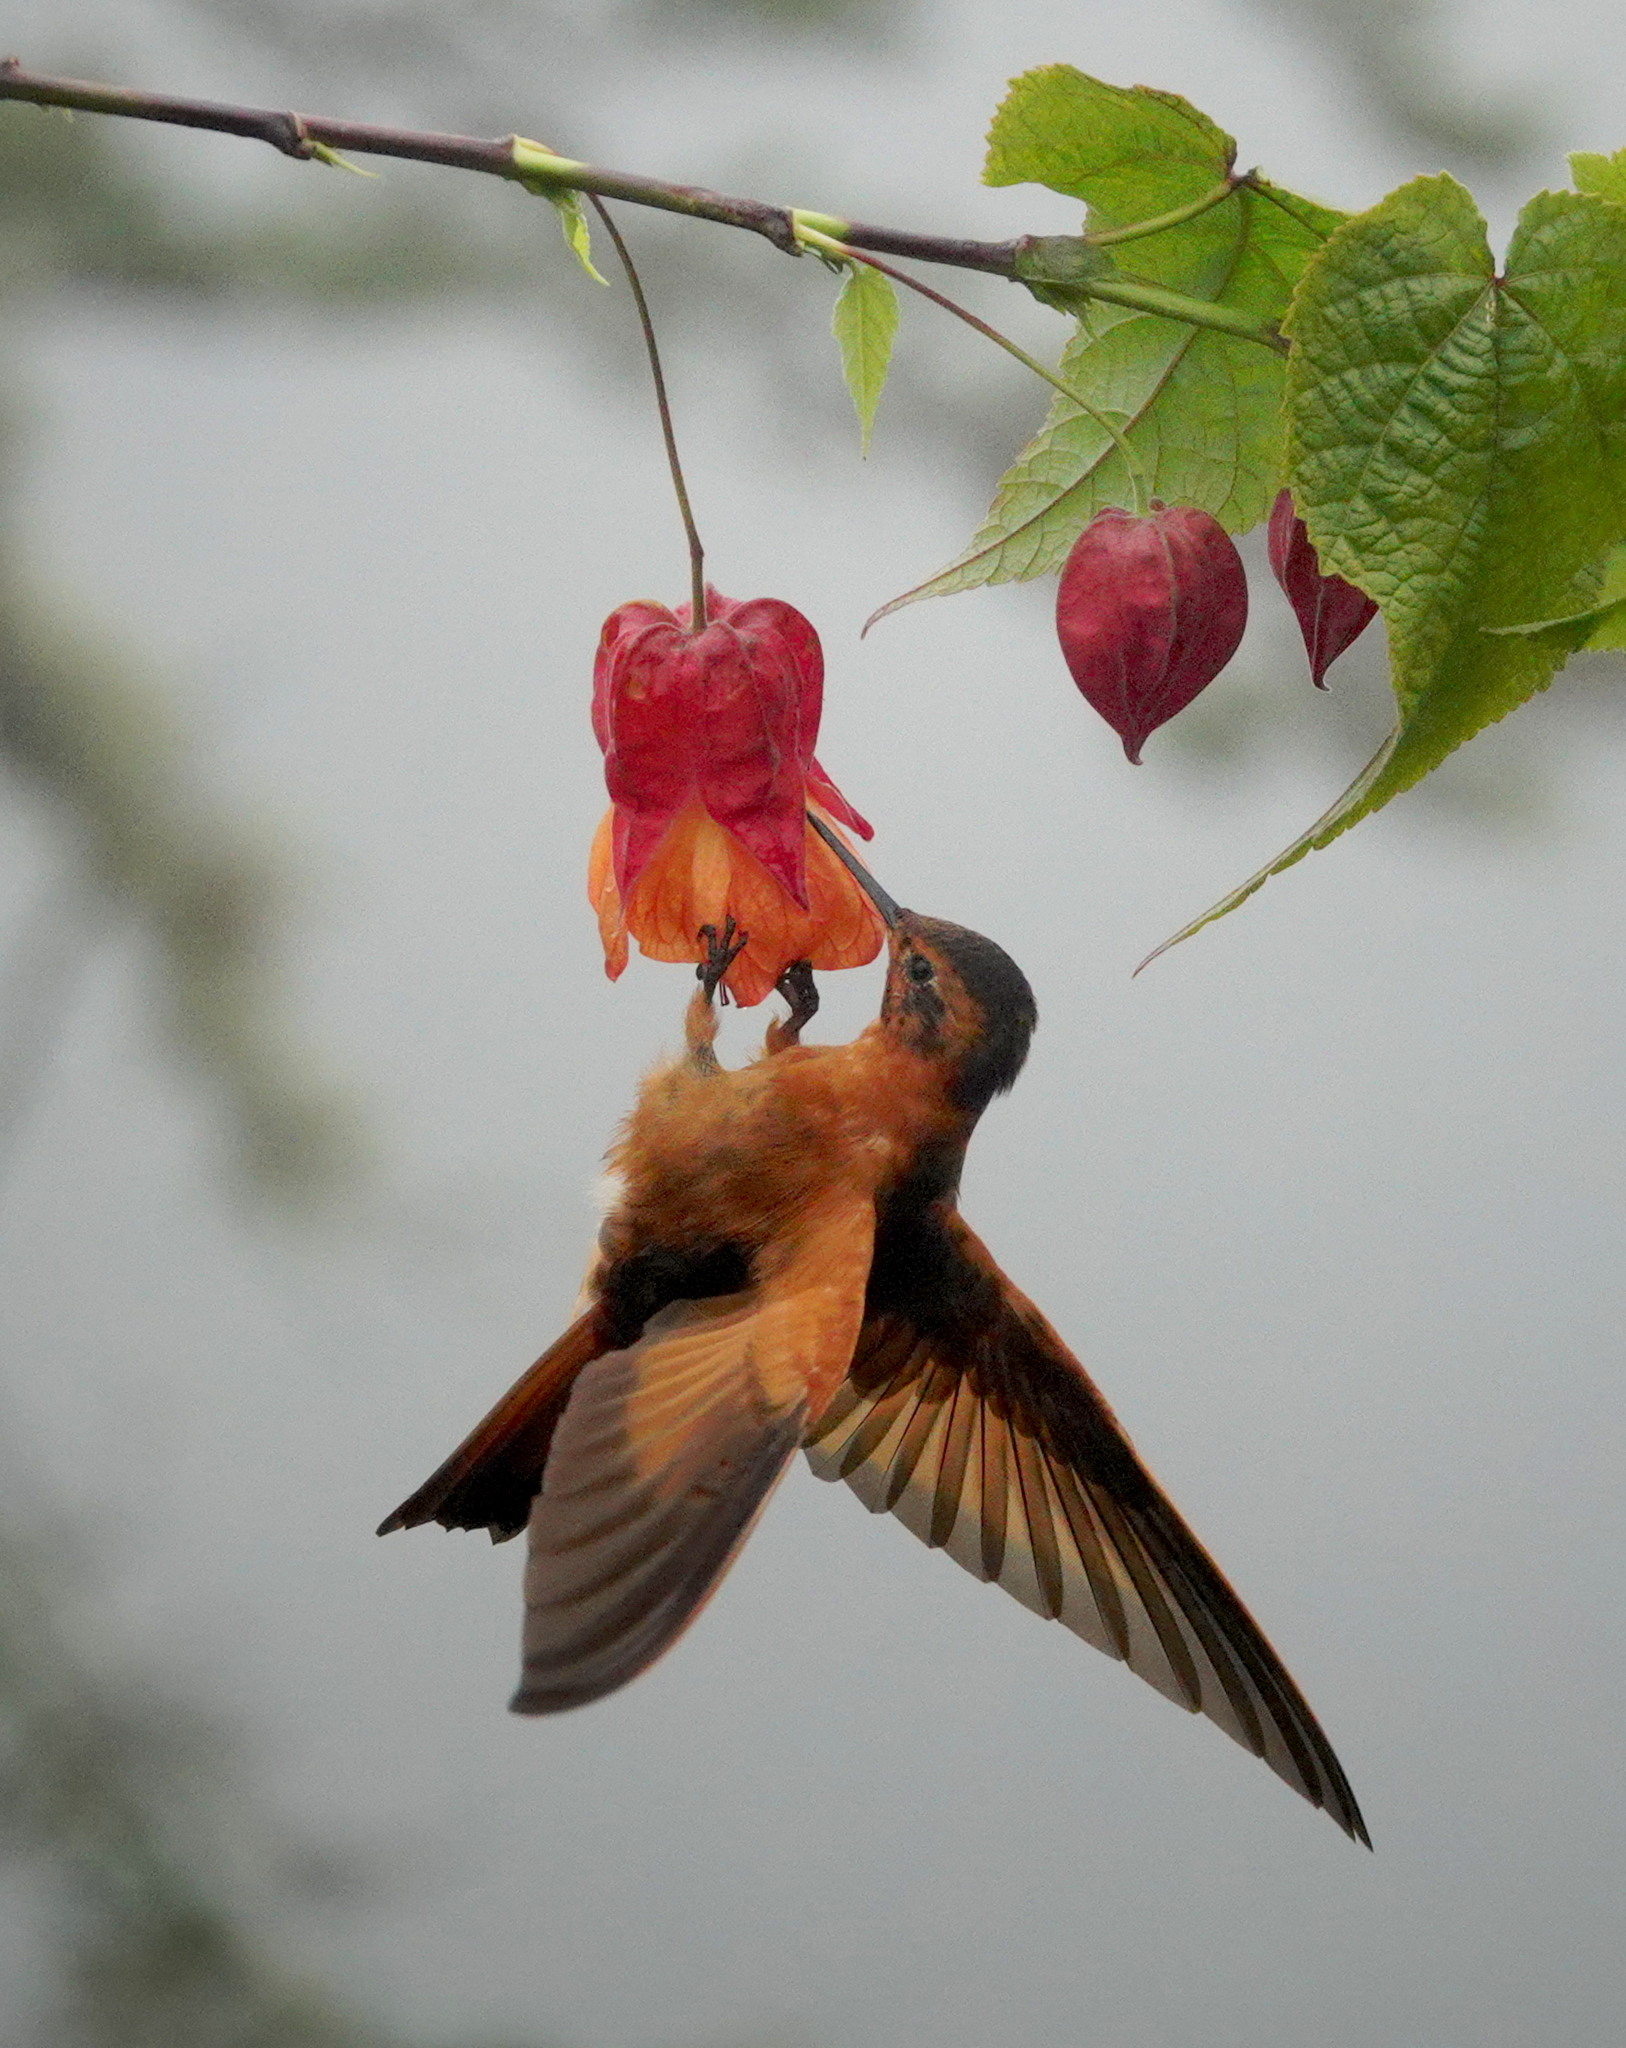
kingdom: Animalia
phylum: Chordata
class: Aves
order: Apodiformes
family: Trochilidae
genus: Aglaeactis
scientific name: Aglaeactis cupripennis
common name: Shining sunbeam
